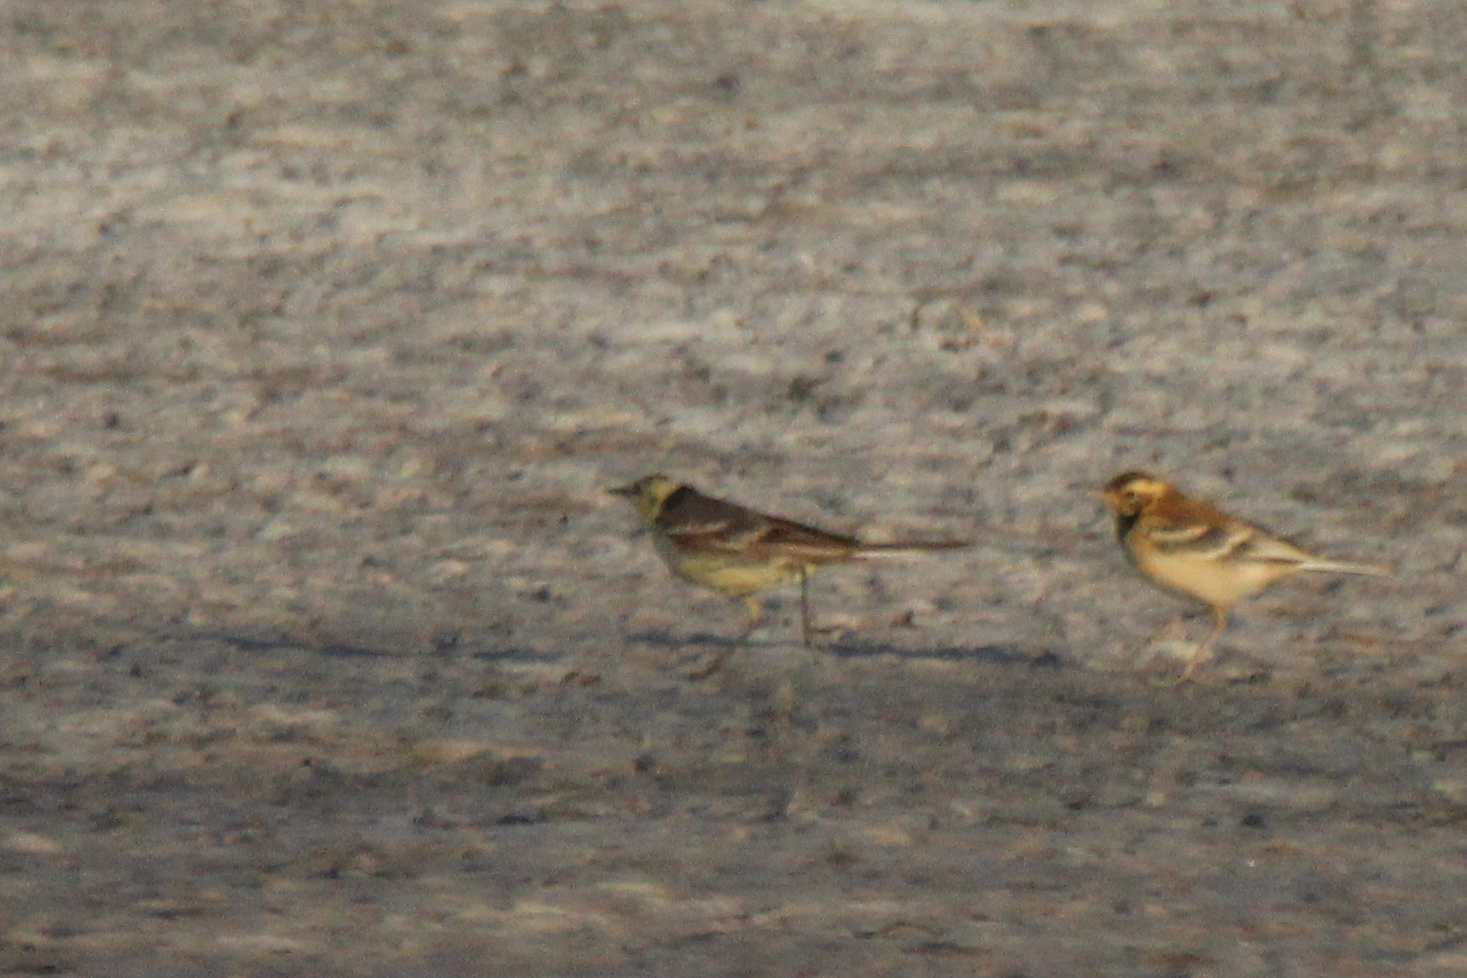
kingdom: Animalia
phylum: Chordata
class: Aves
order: Passeriformes
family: Motacillidae
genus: Motacilla
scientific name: Motacilla citreola
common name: Citrine wagtail
